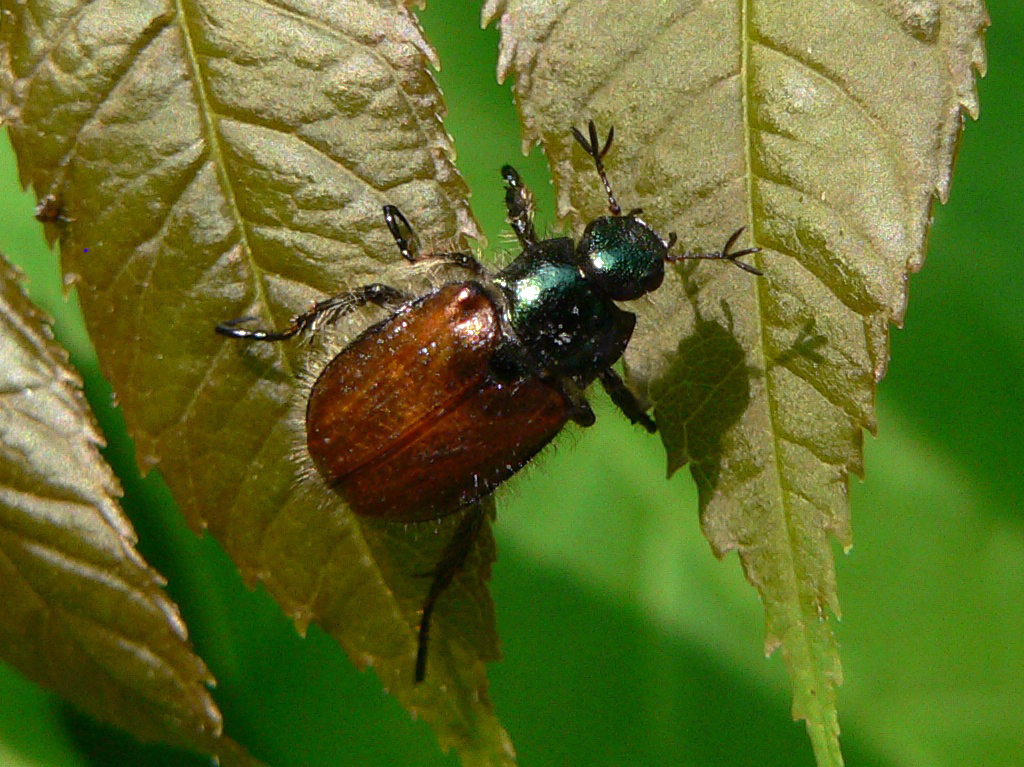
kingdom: Animalia
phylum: Arthropoda
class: Insecta
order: Coleoptera
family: Scarabaeidae
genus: Phyllopertha
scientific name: Phyllopertha horticola
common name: Garden chafer
